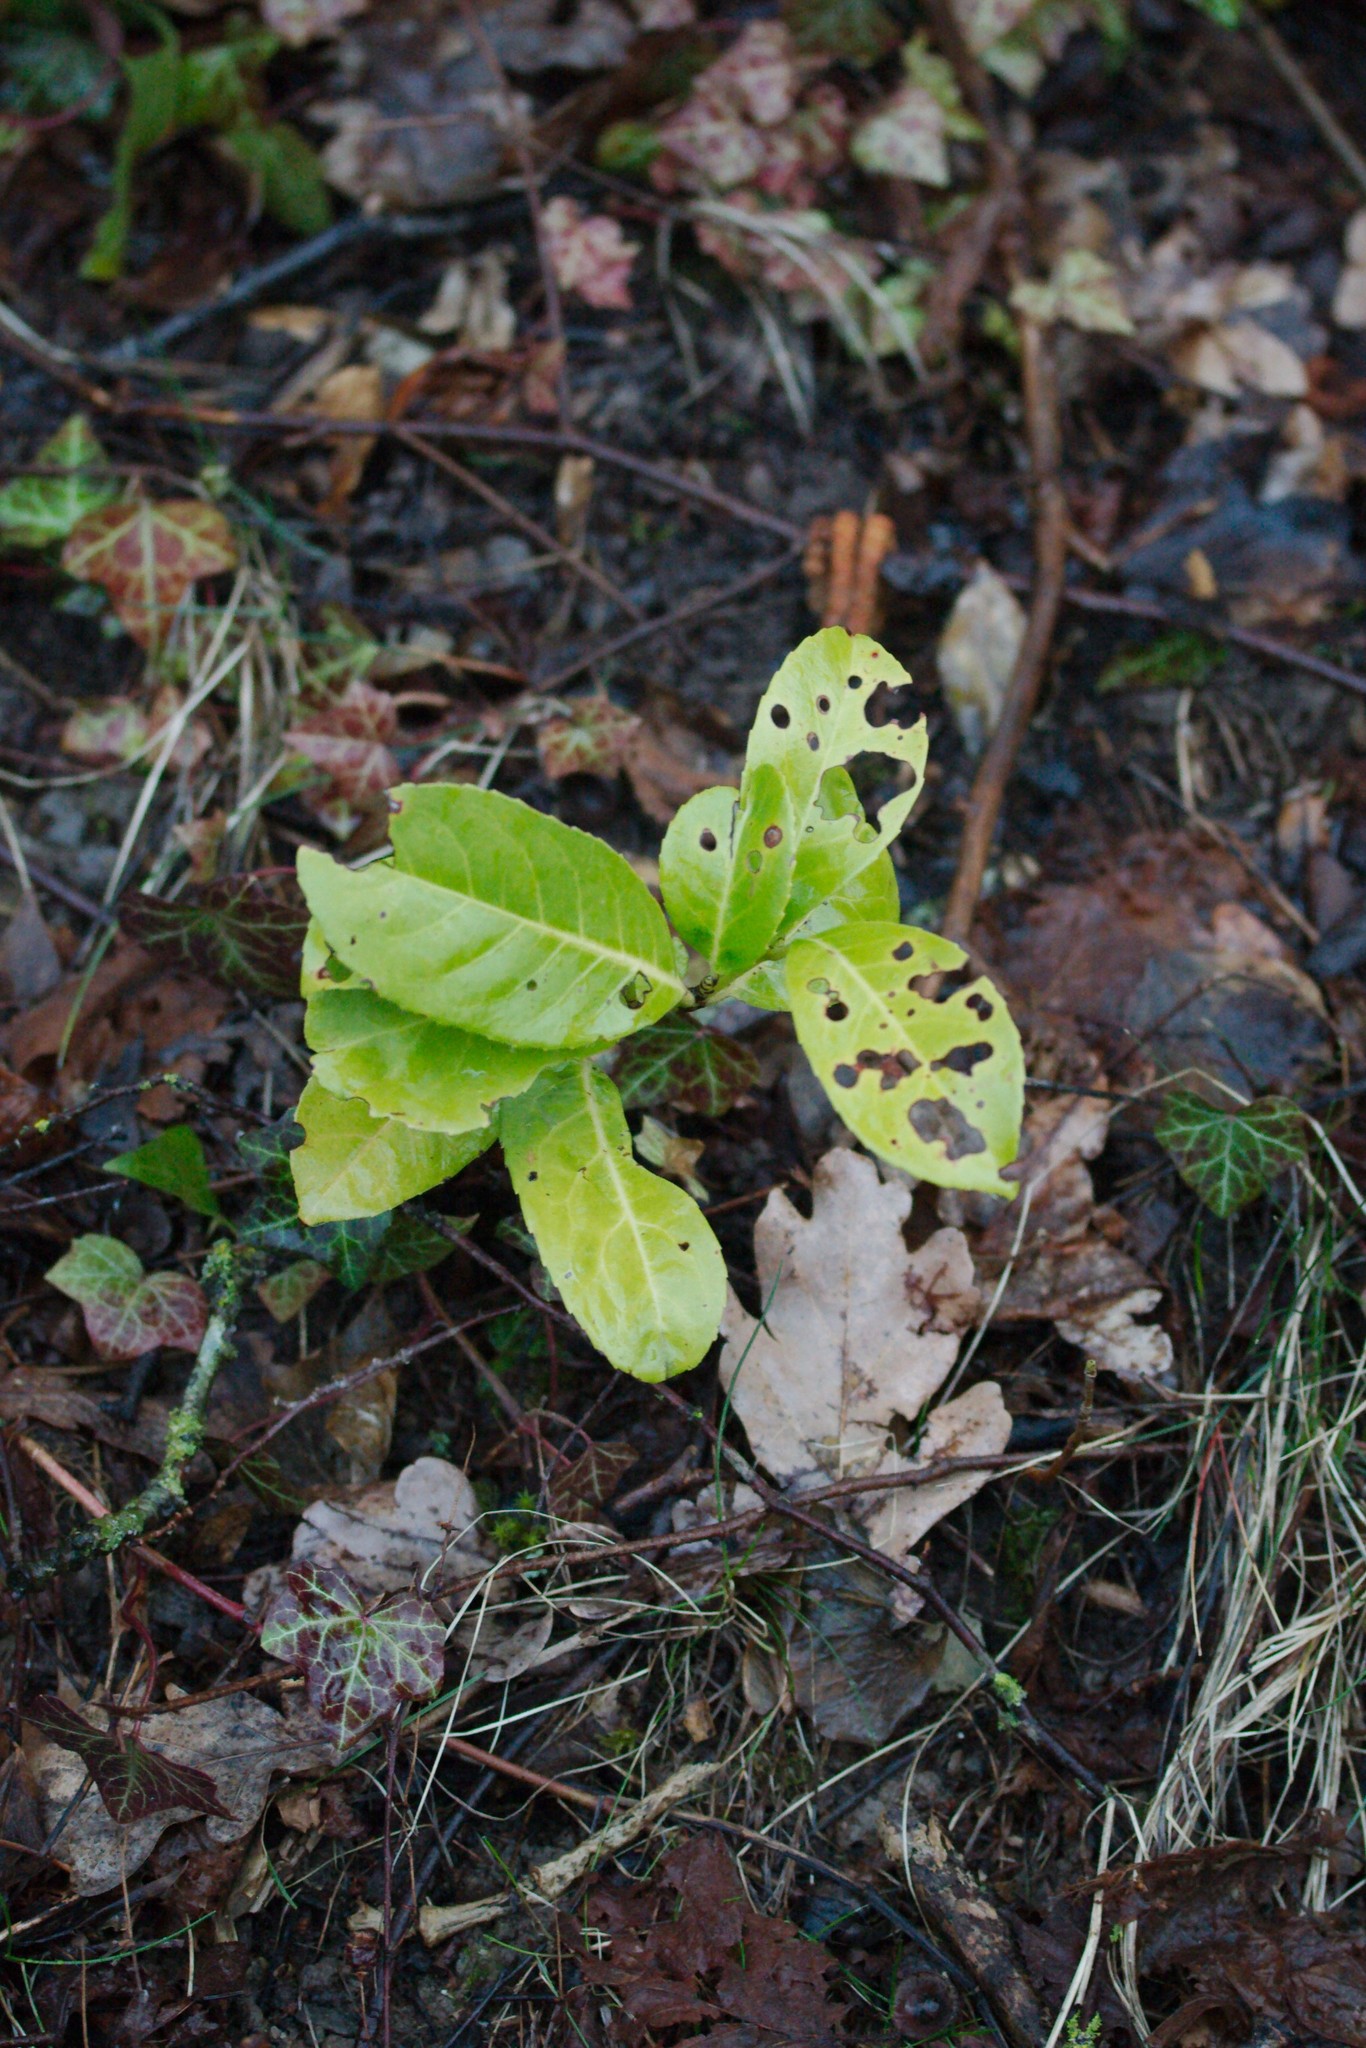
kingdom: Plantae
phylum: Tracheophyta
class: Magnoliopsida
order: Rosales
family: Rosaceae
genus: Prunus
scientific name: Prunus laurocerasus
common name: Cherry laurel
